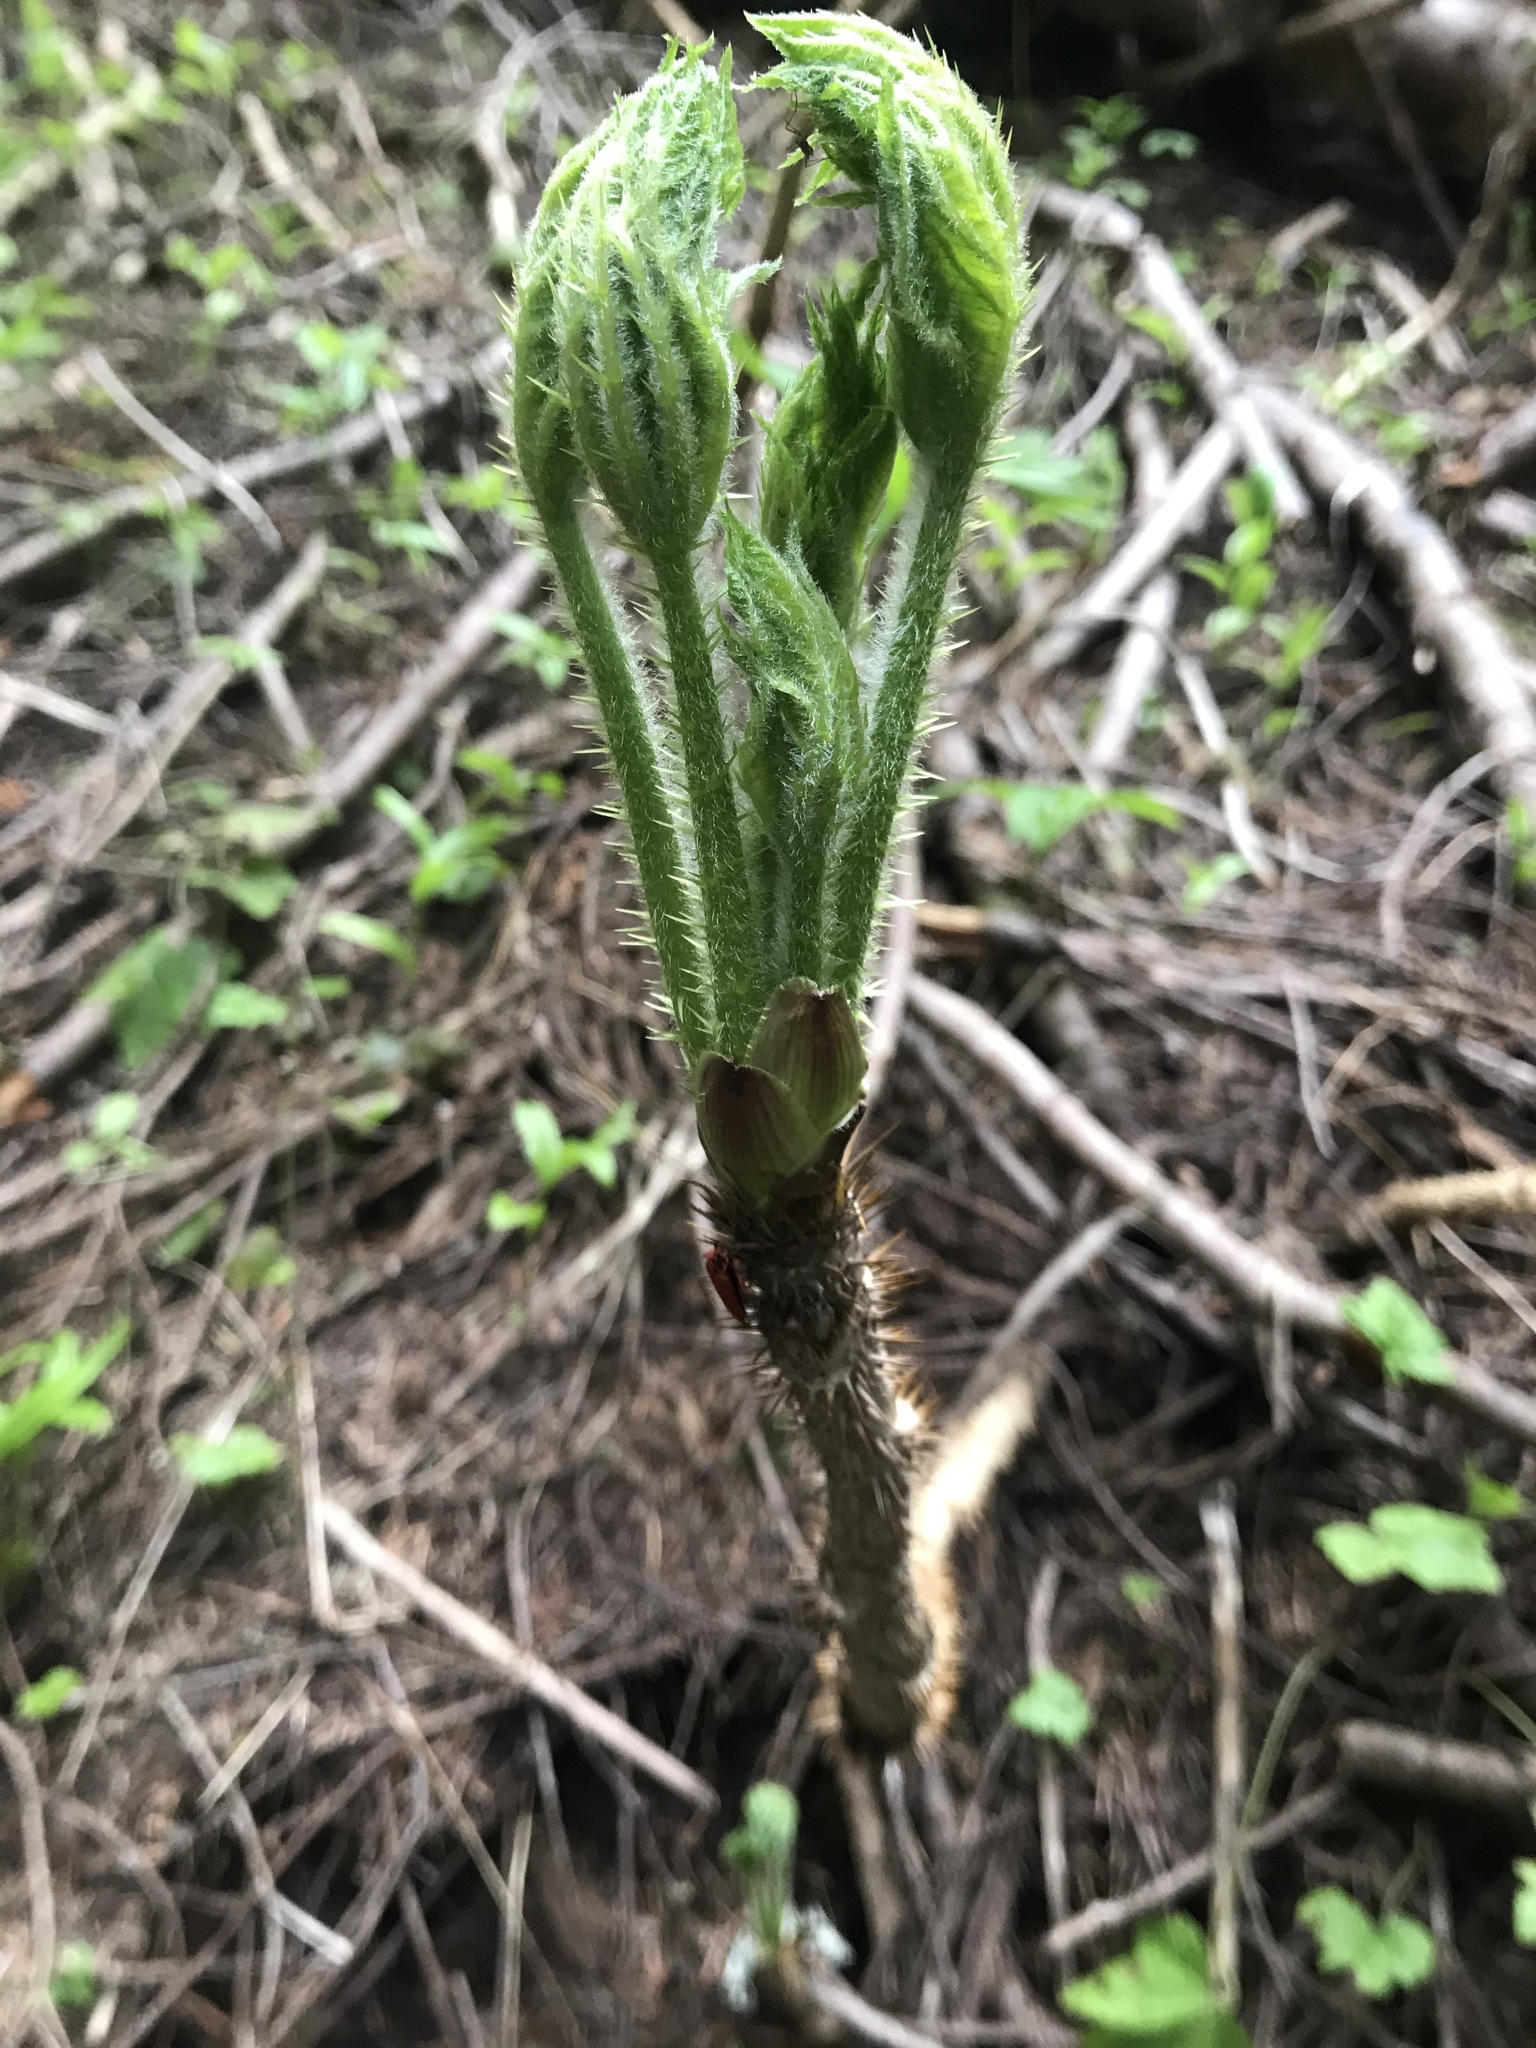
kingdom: Plantae
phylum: Tracheophyta
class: Magnoliopsida
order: Apiales
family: Araliaceae
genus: Oplopanax
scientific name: Oplopanax horridus
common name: Devil's walking-stick
